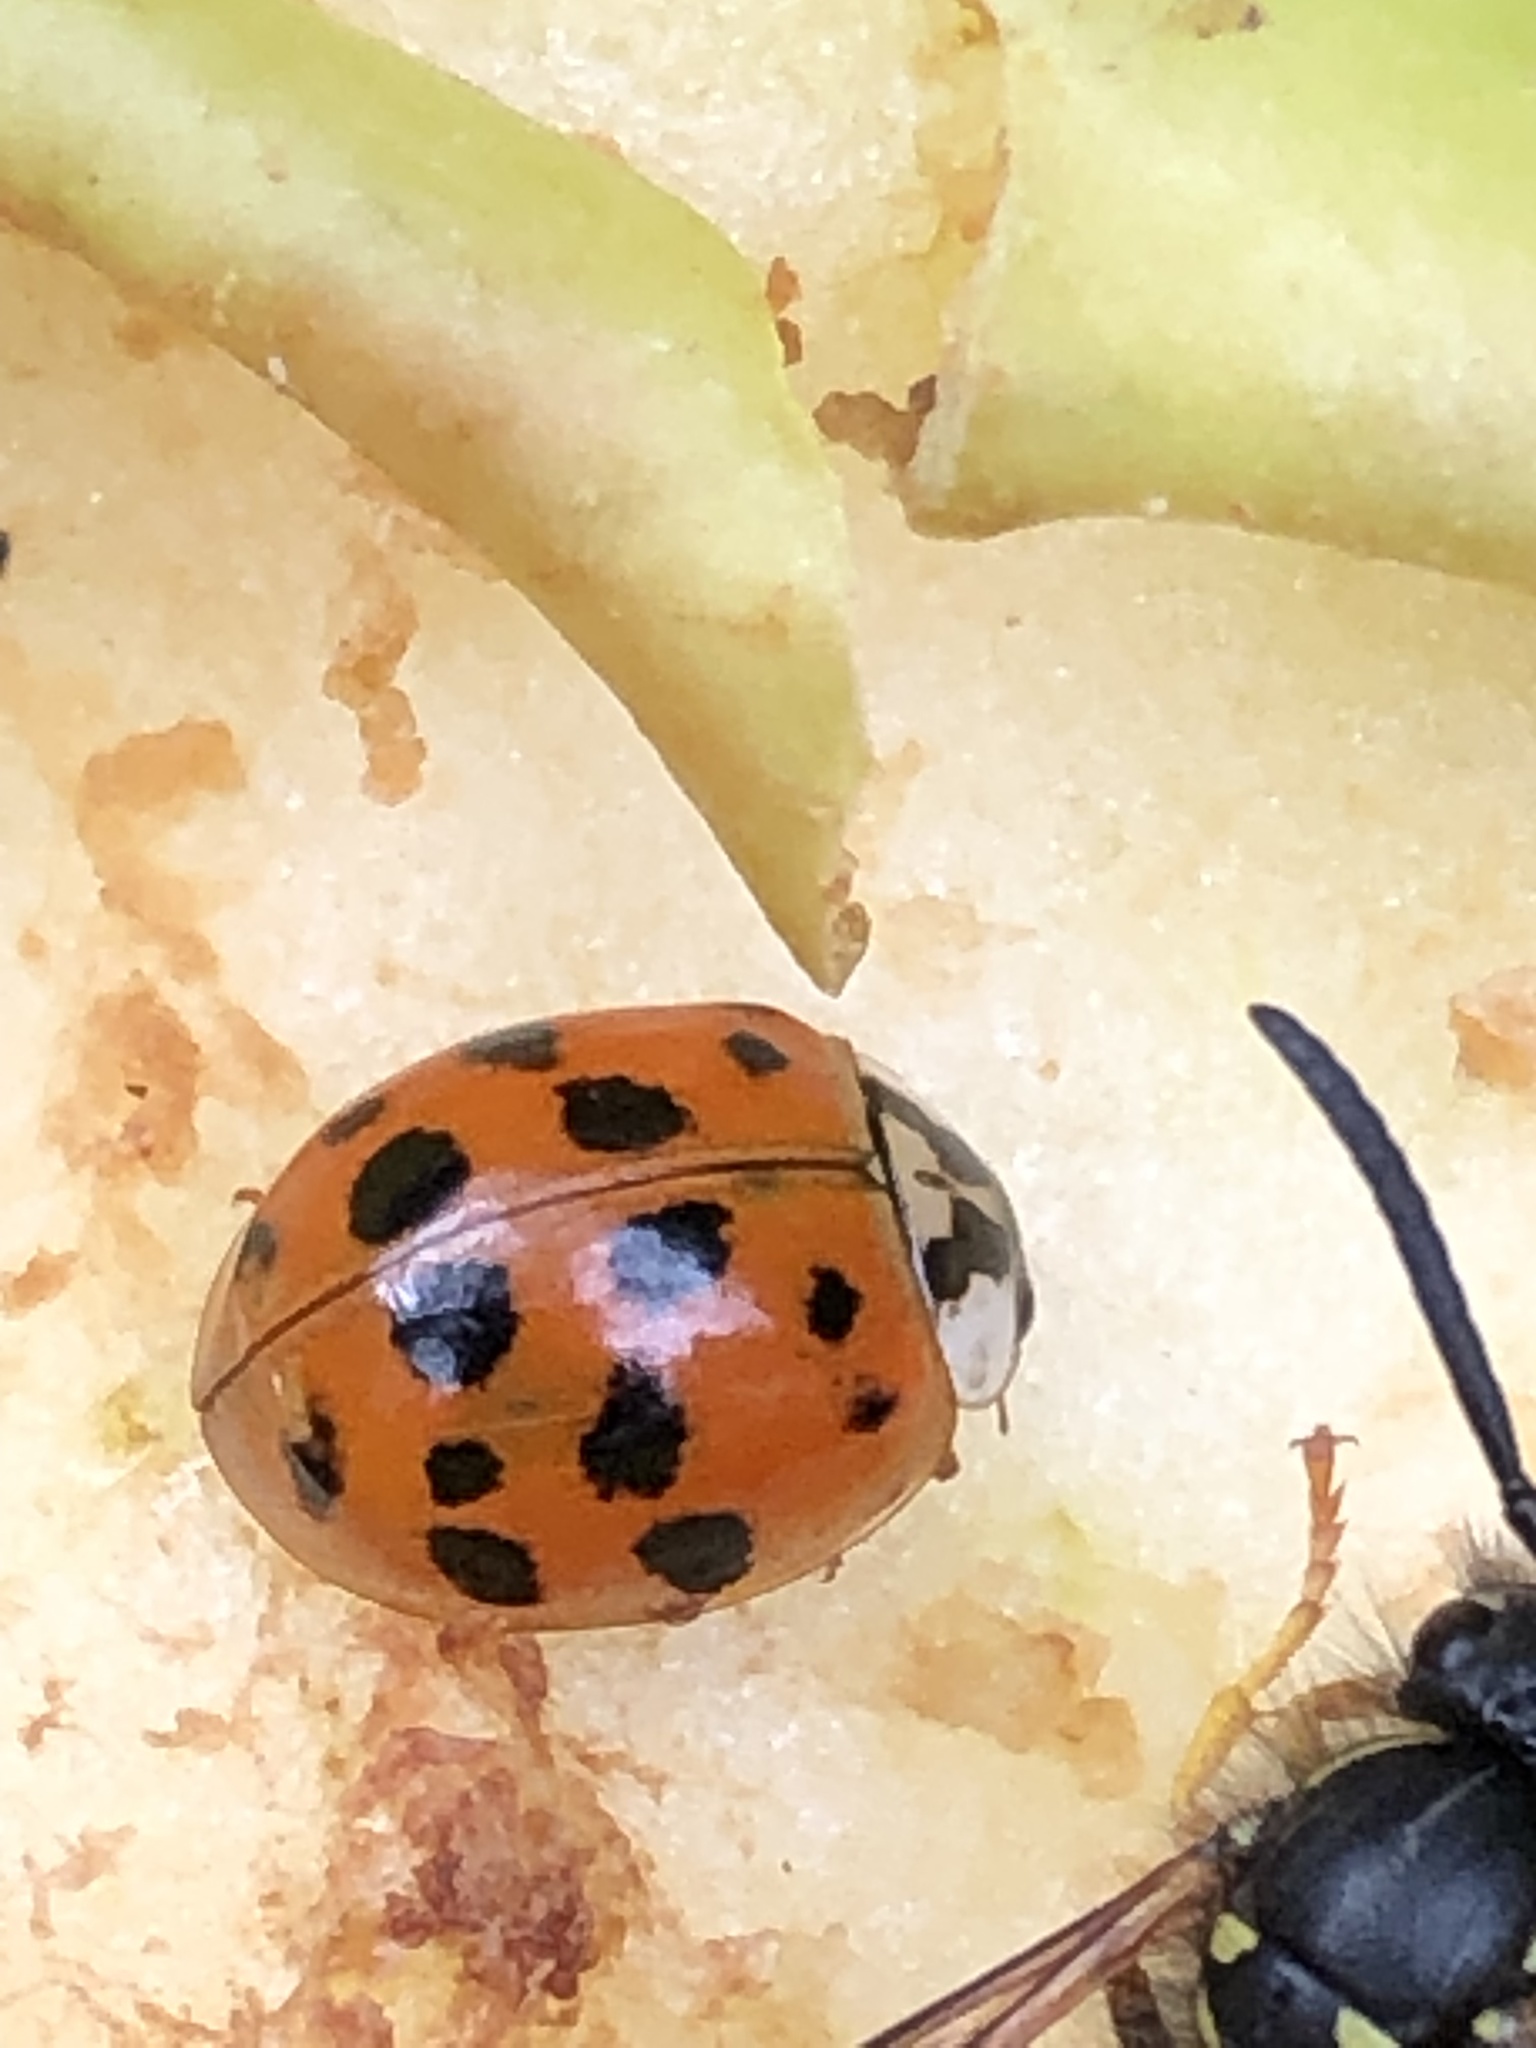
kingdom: Animalia
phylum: Arthropoda
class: Insecta
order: Coleoptera
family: Coccinellidae
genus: Harmonia
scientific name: Harmonia axyridis
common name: Harlequin ladybird
